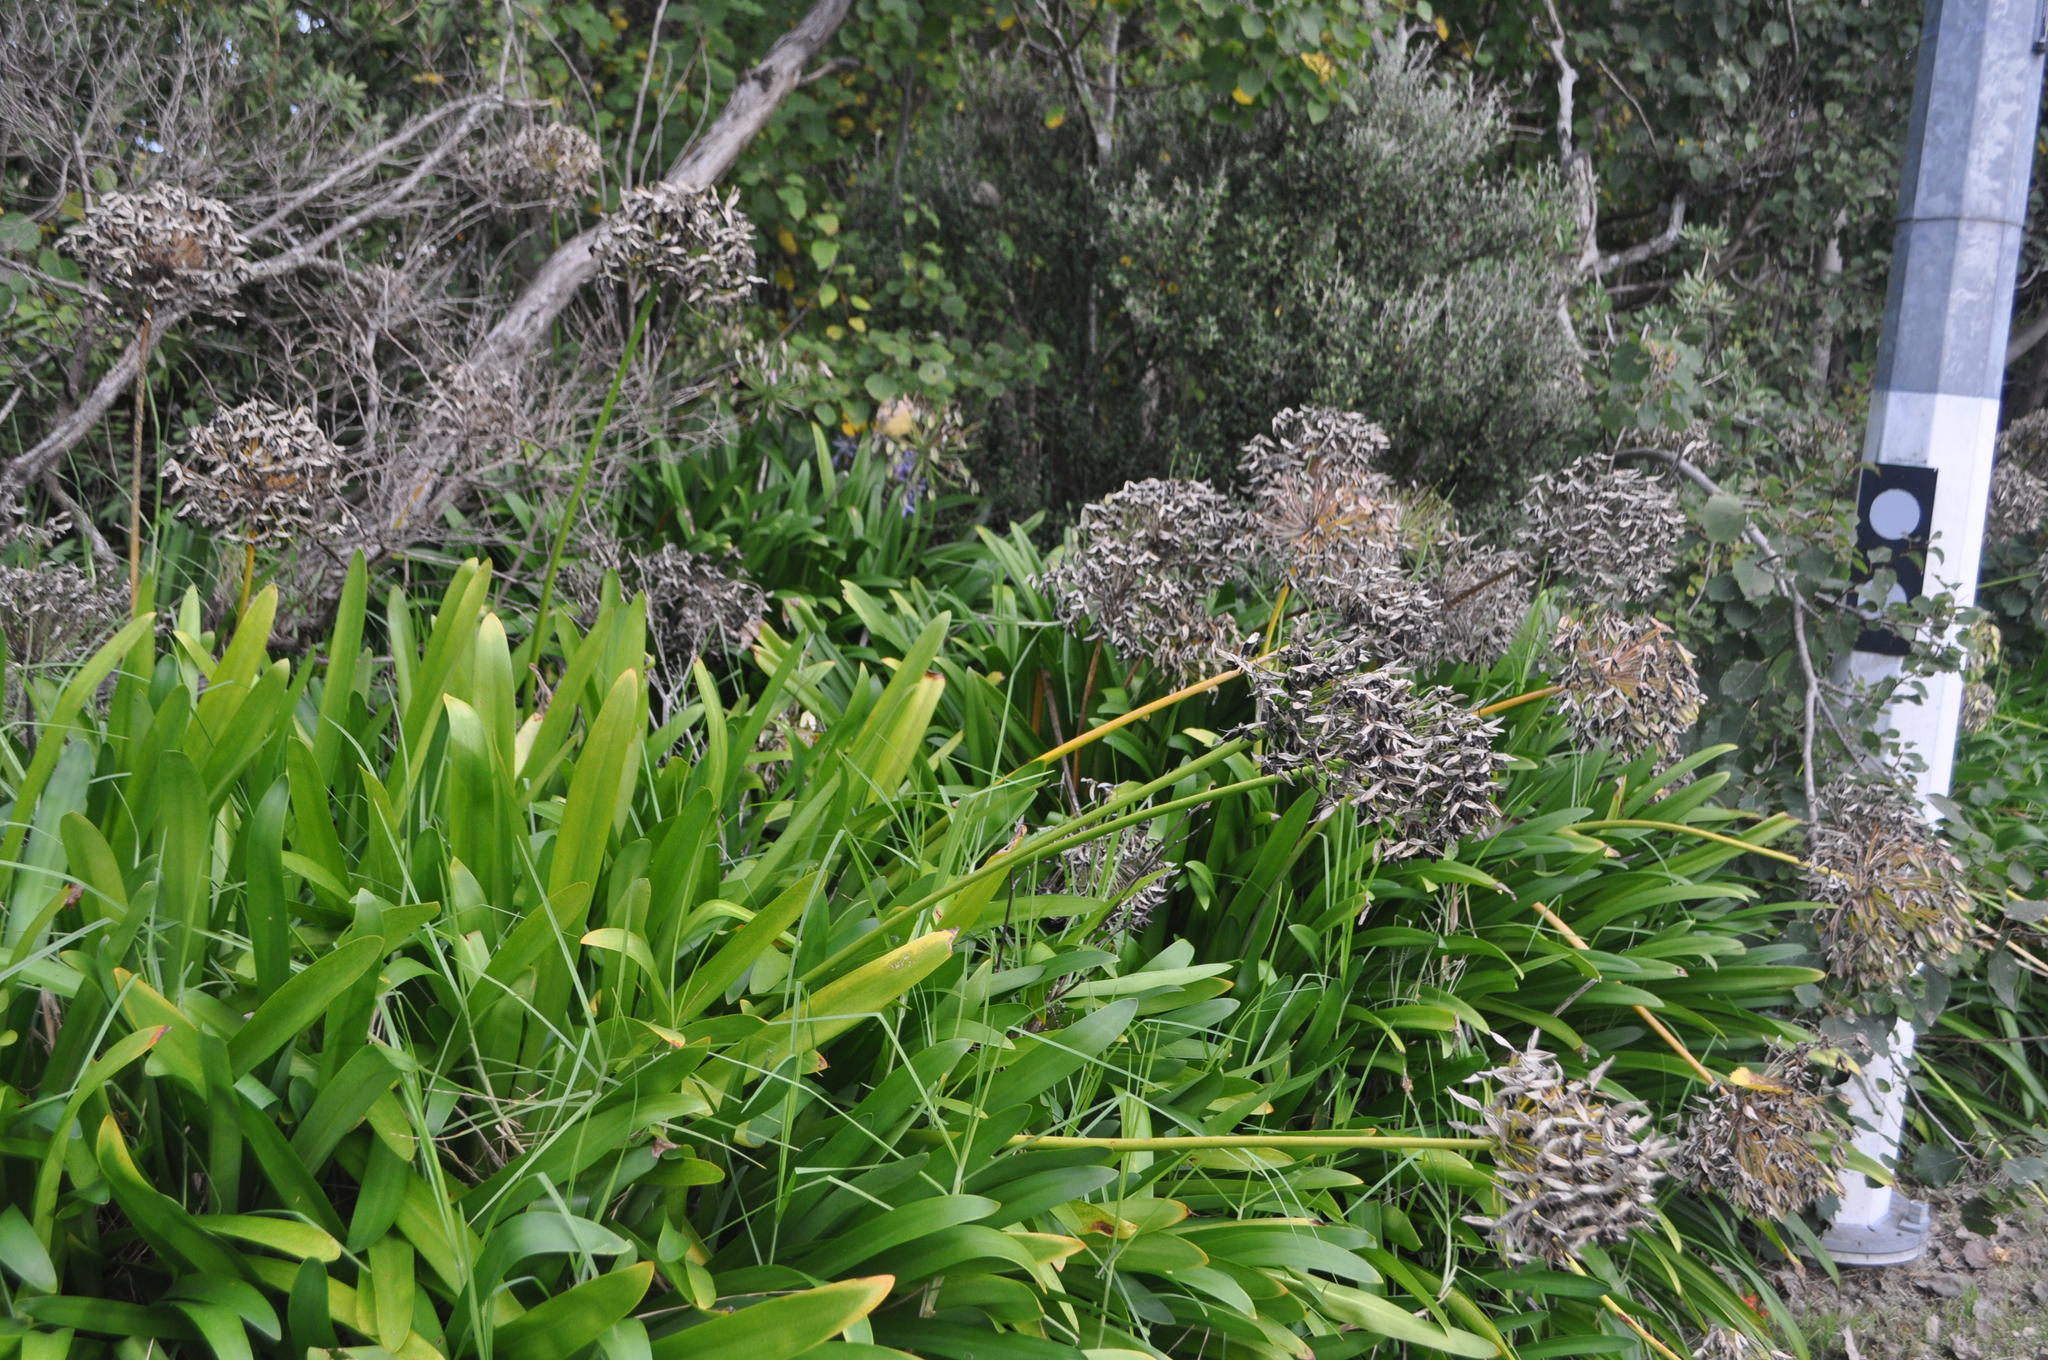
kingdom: Plantae
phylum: Tracheophyta
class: Liliopsida
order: Asparagales
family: Amaryllidaceae
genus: Agapanthus
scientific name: Agapanthus praecox
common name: African-lily
